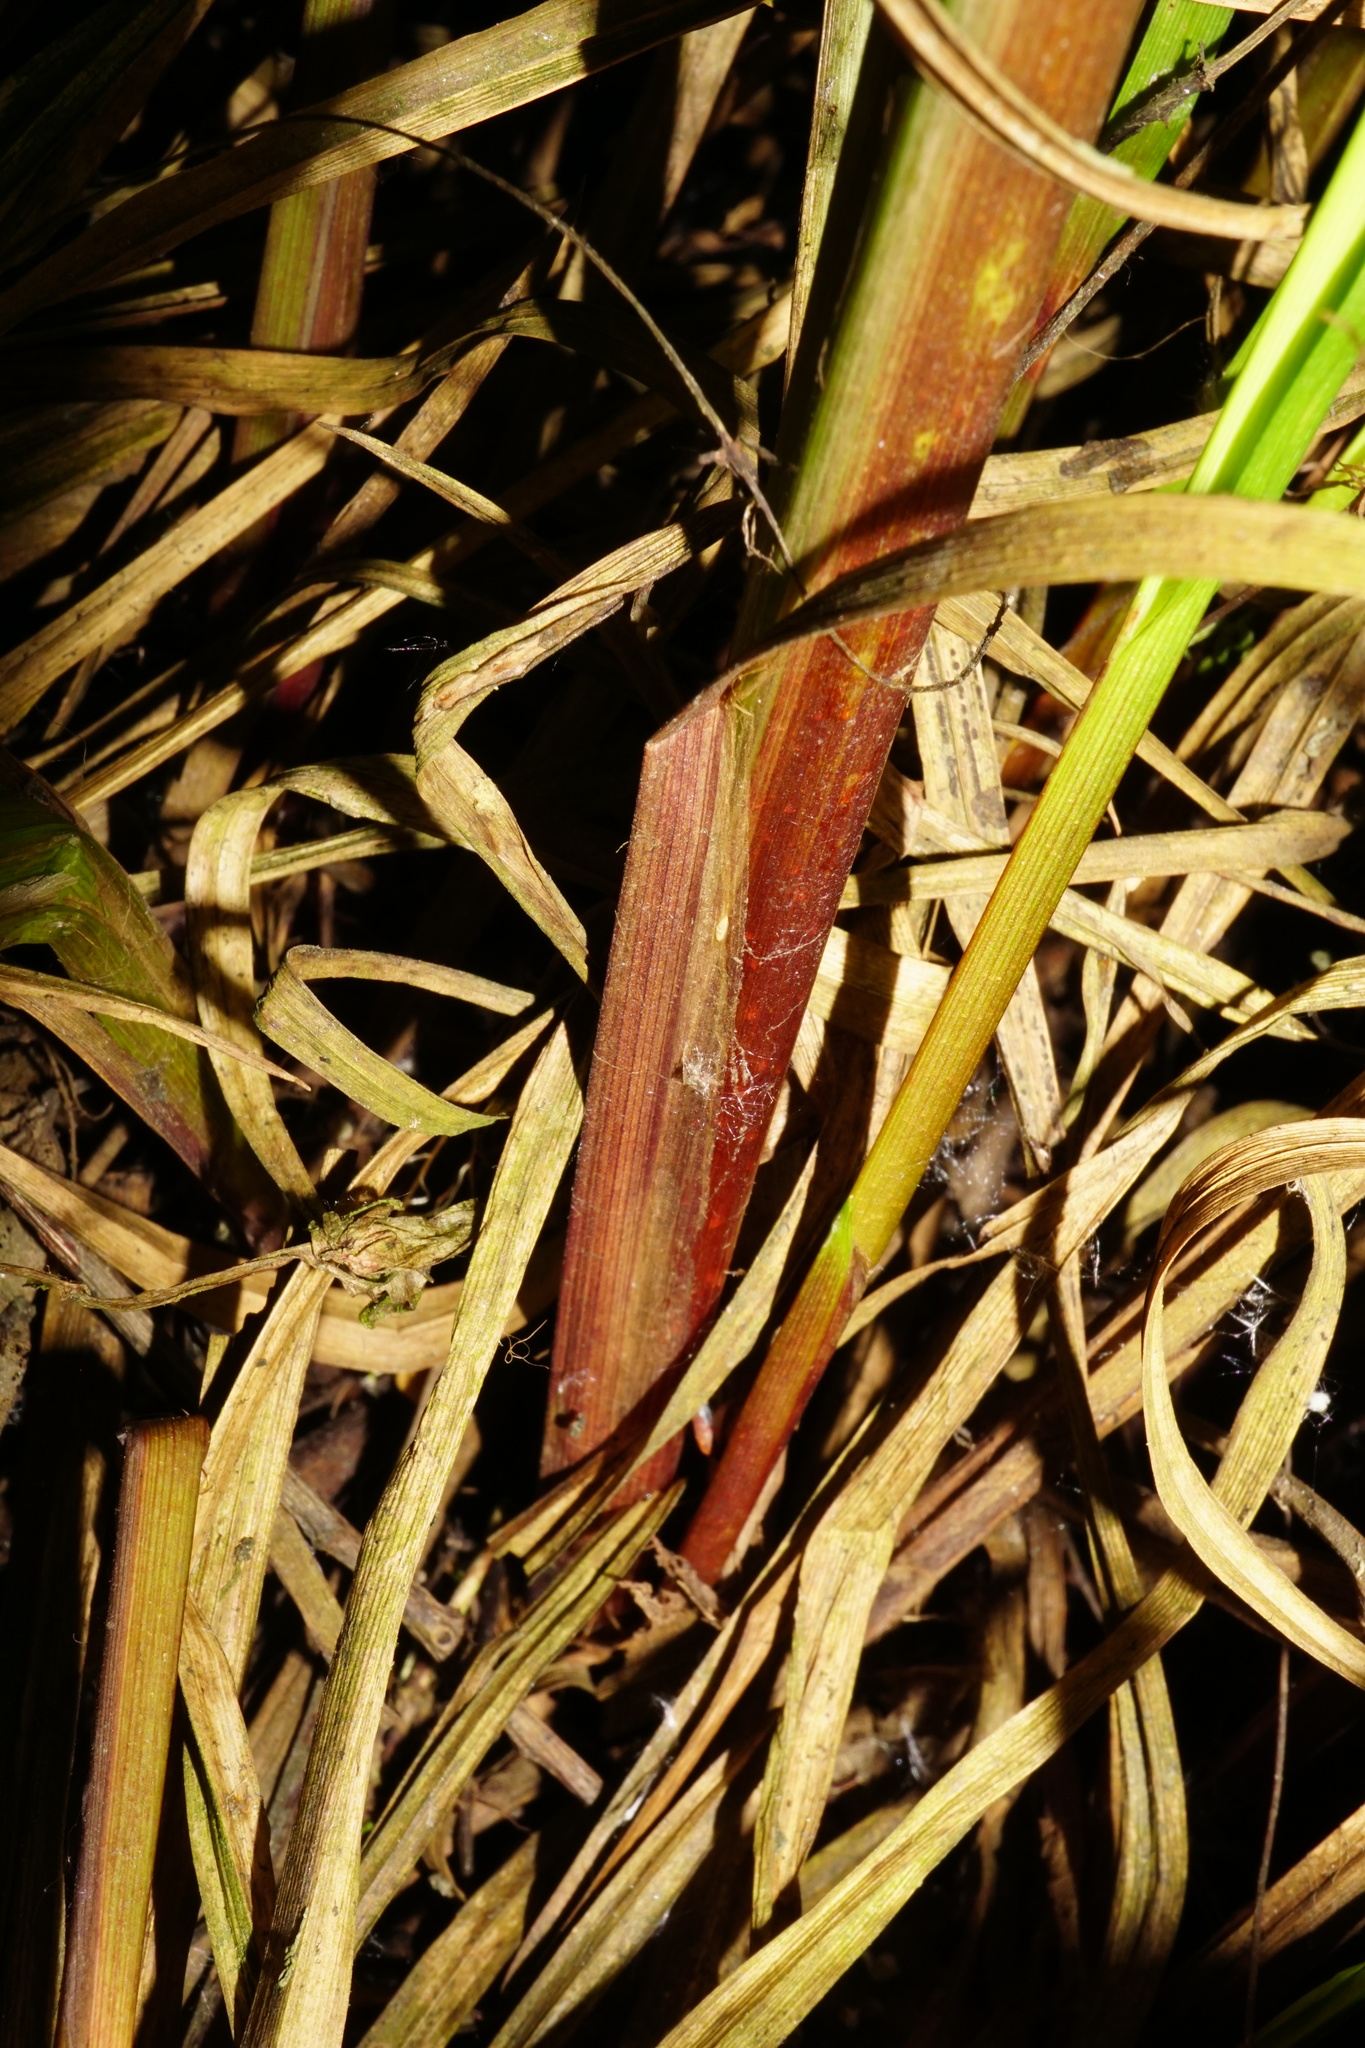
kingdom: Plantae
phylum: Tracheophyta
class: Liliopsida
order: Poales
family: Cyperaceae
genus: Carex
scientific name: Carex vesicaria
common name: Bladder-sedge
